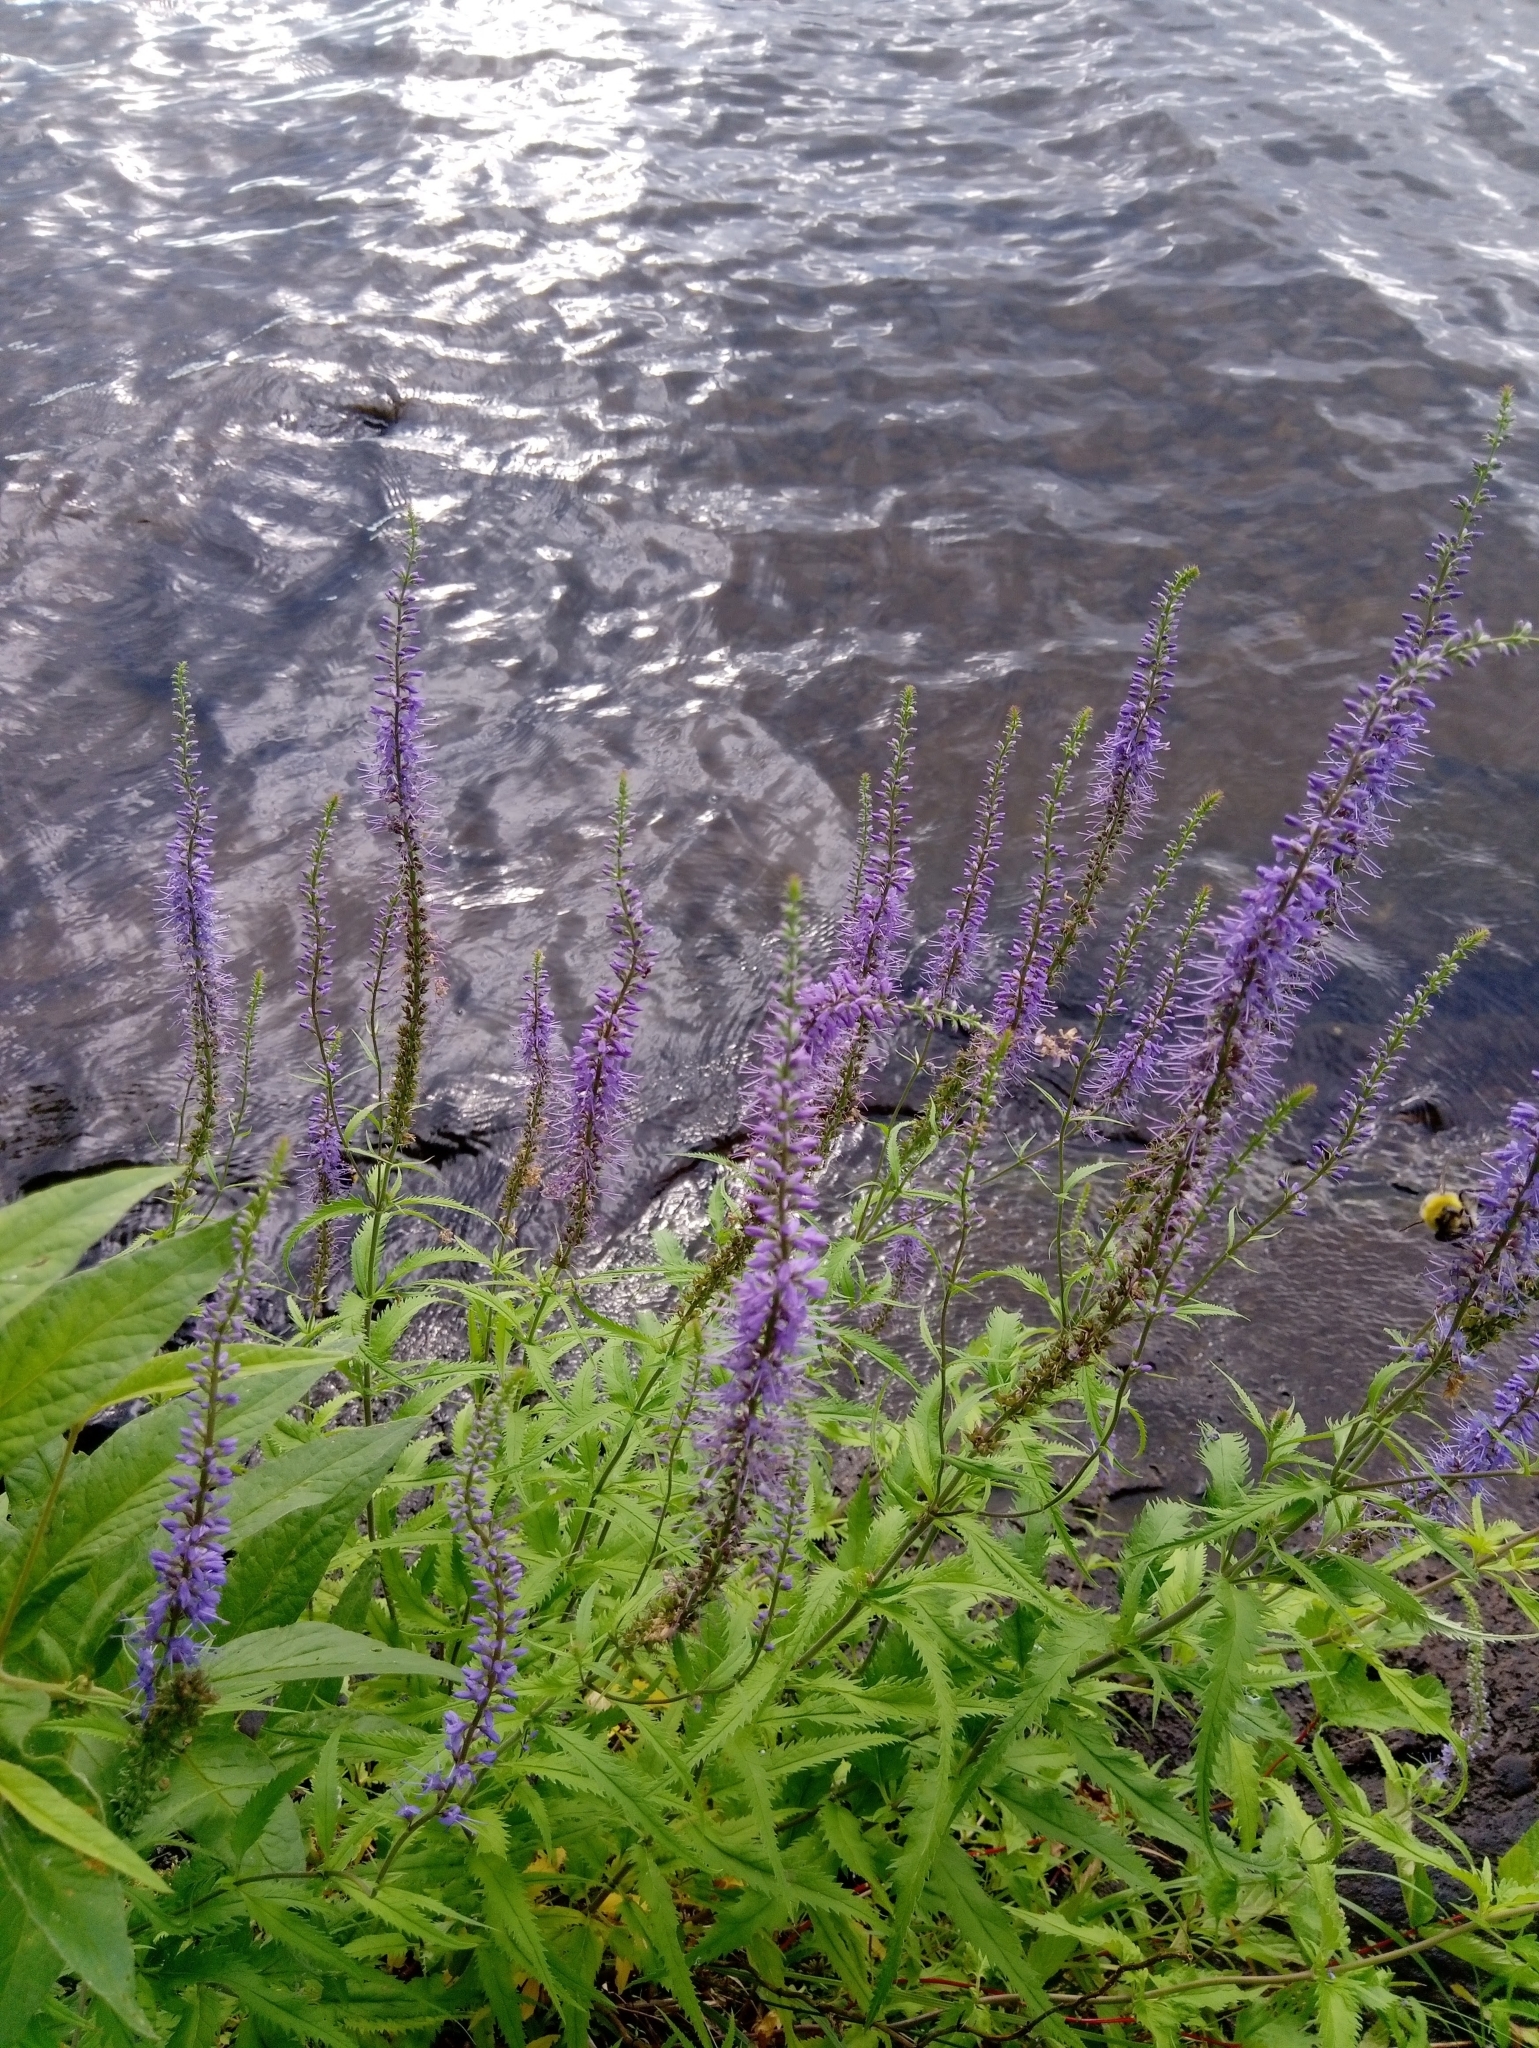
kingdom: Plantae
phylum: Tracheophyta
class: Magnoliopsida
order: Lamiales
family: Plantaginaceae
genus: Veronica
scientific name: Veronica longifolia
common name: Garden speedwell
